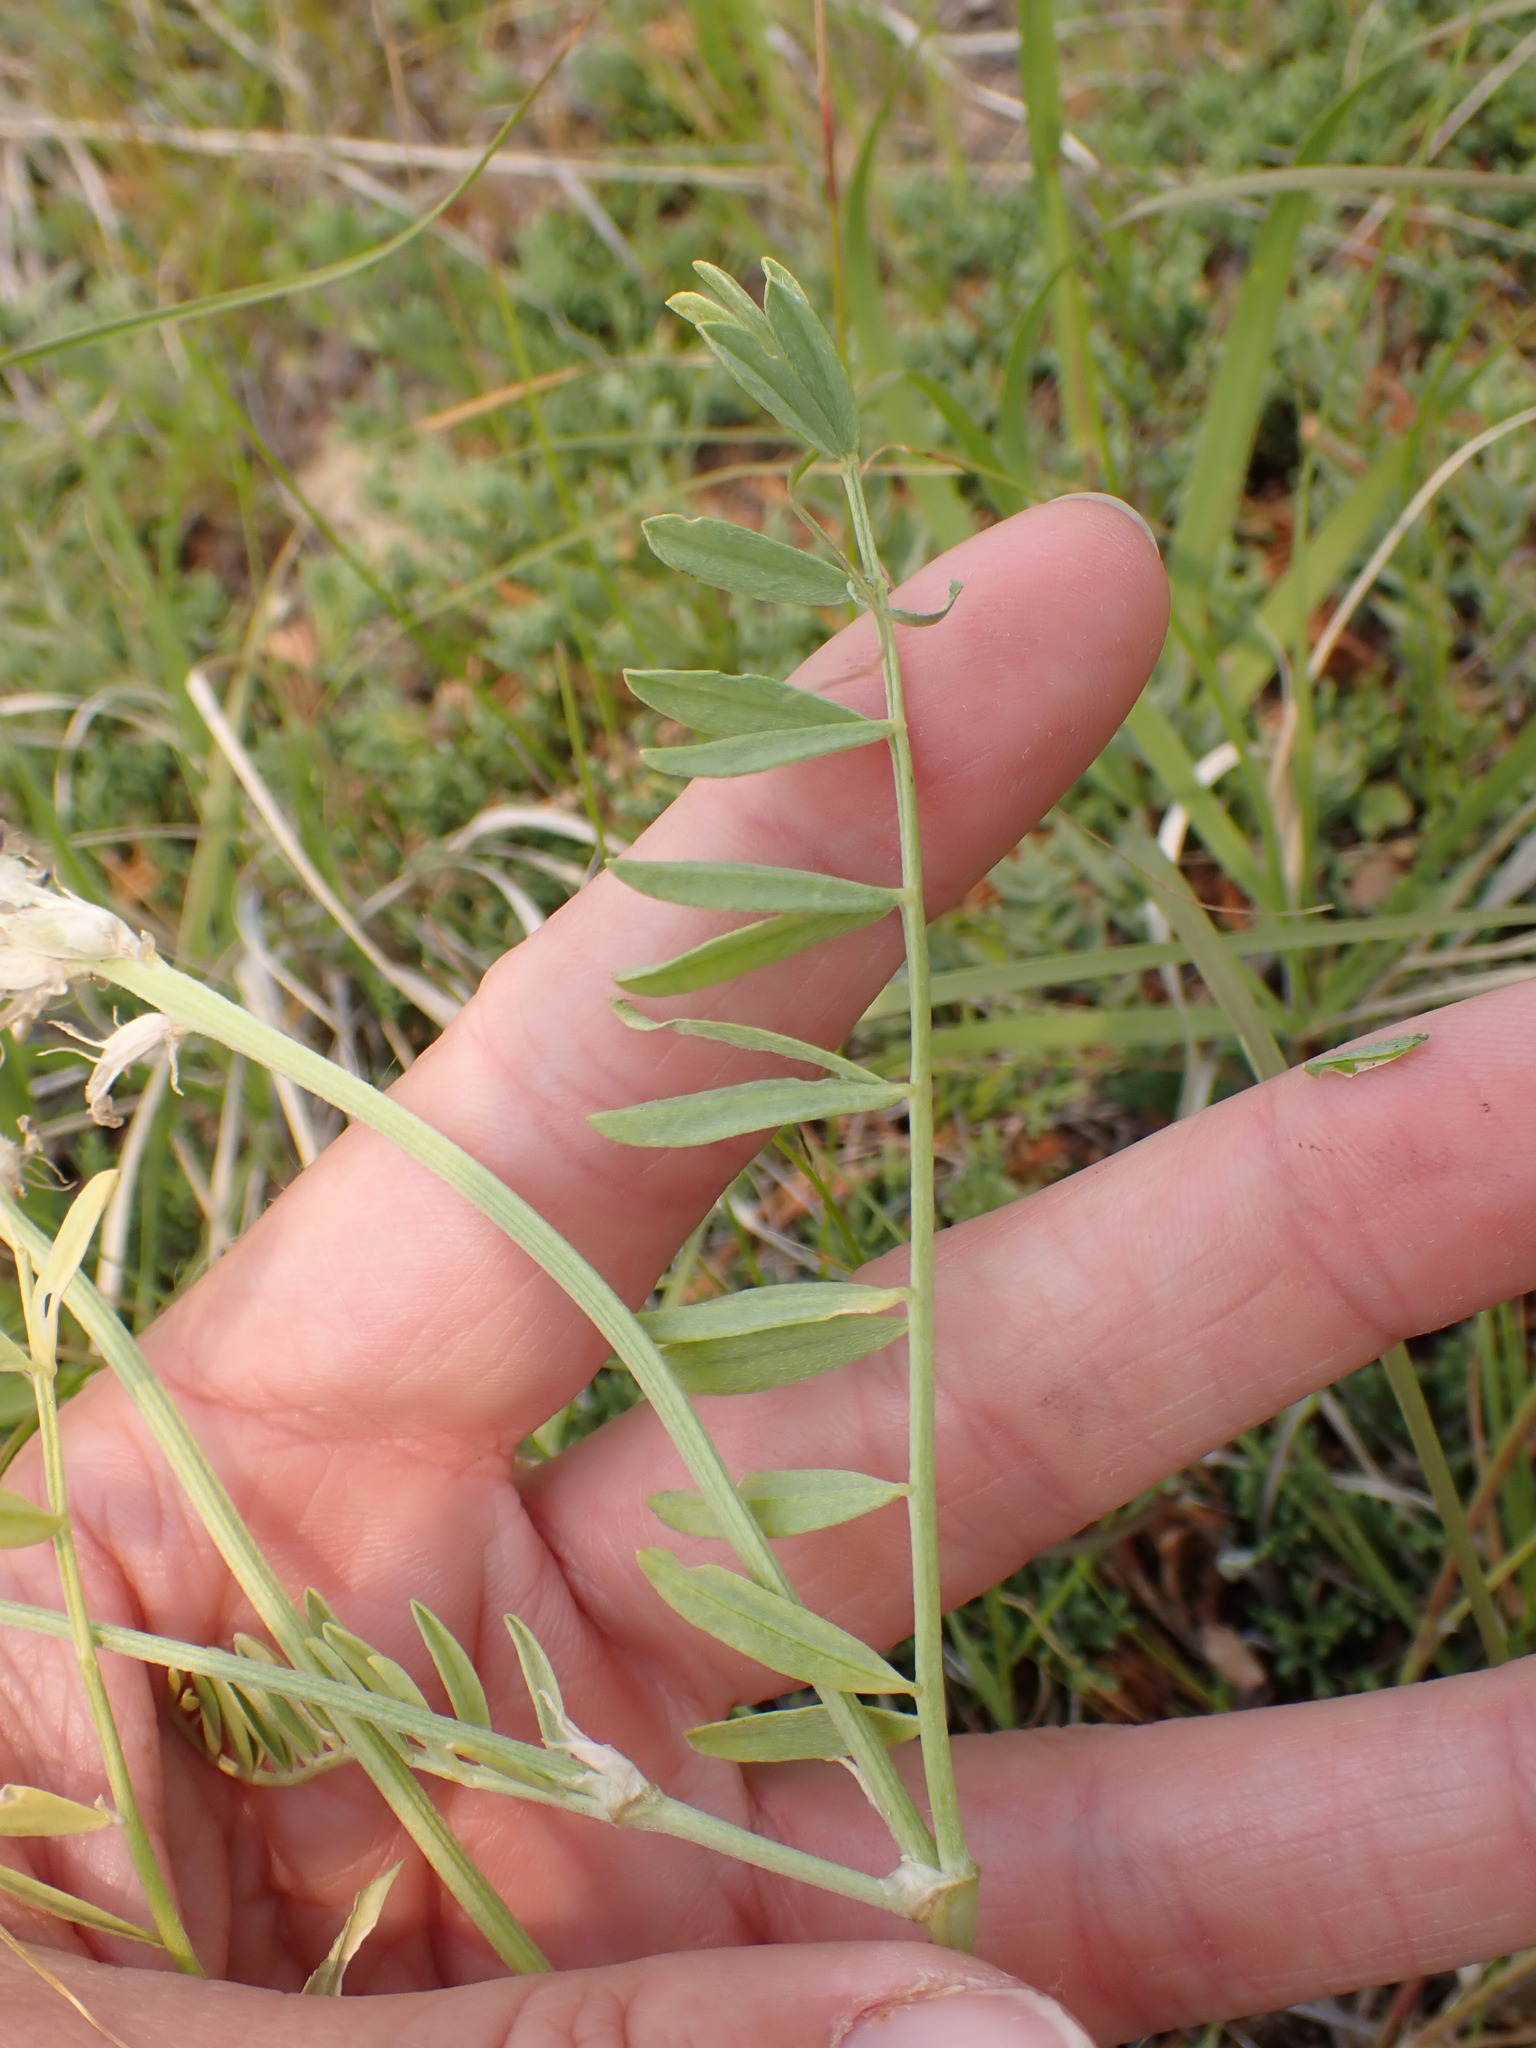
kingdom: Plantae
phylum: Tracheophyta
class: Magnoliopsida
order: Fabales
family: Fabaceae
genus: Astragalus
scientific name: Astragalus laxmannii
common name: Laxmann's milk-vetch
